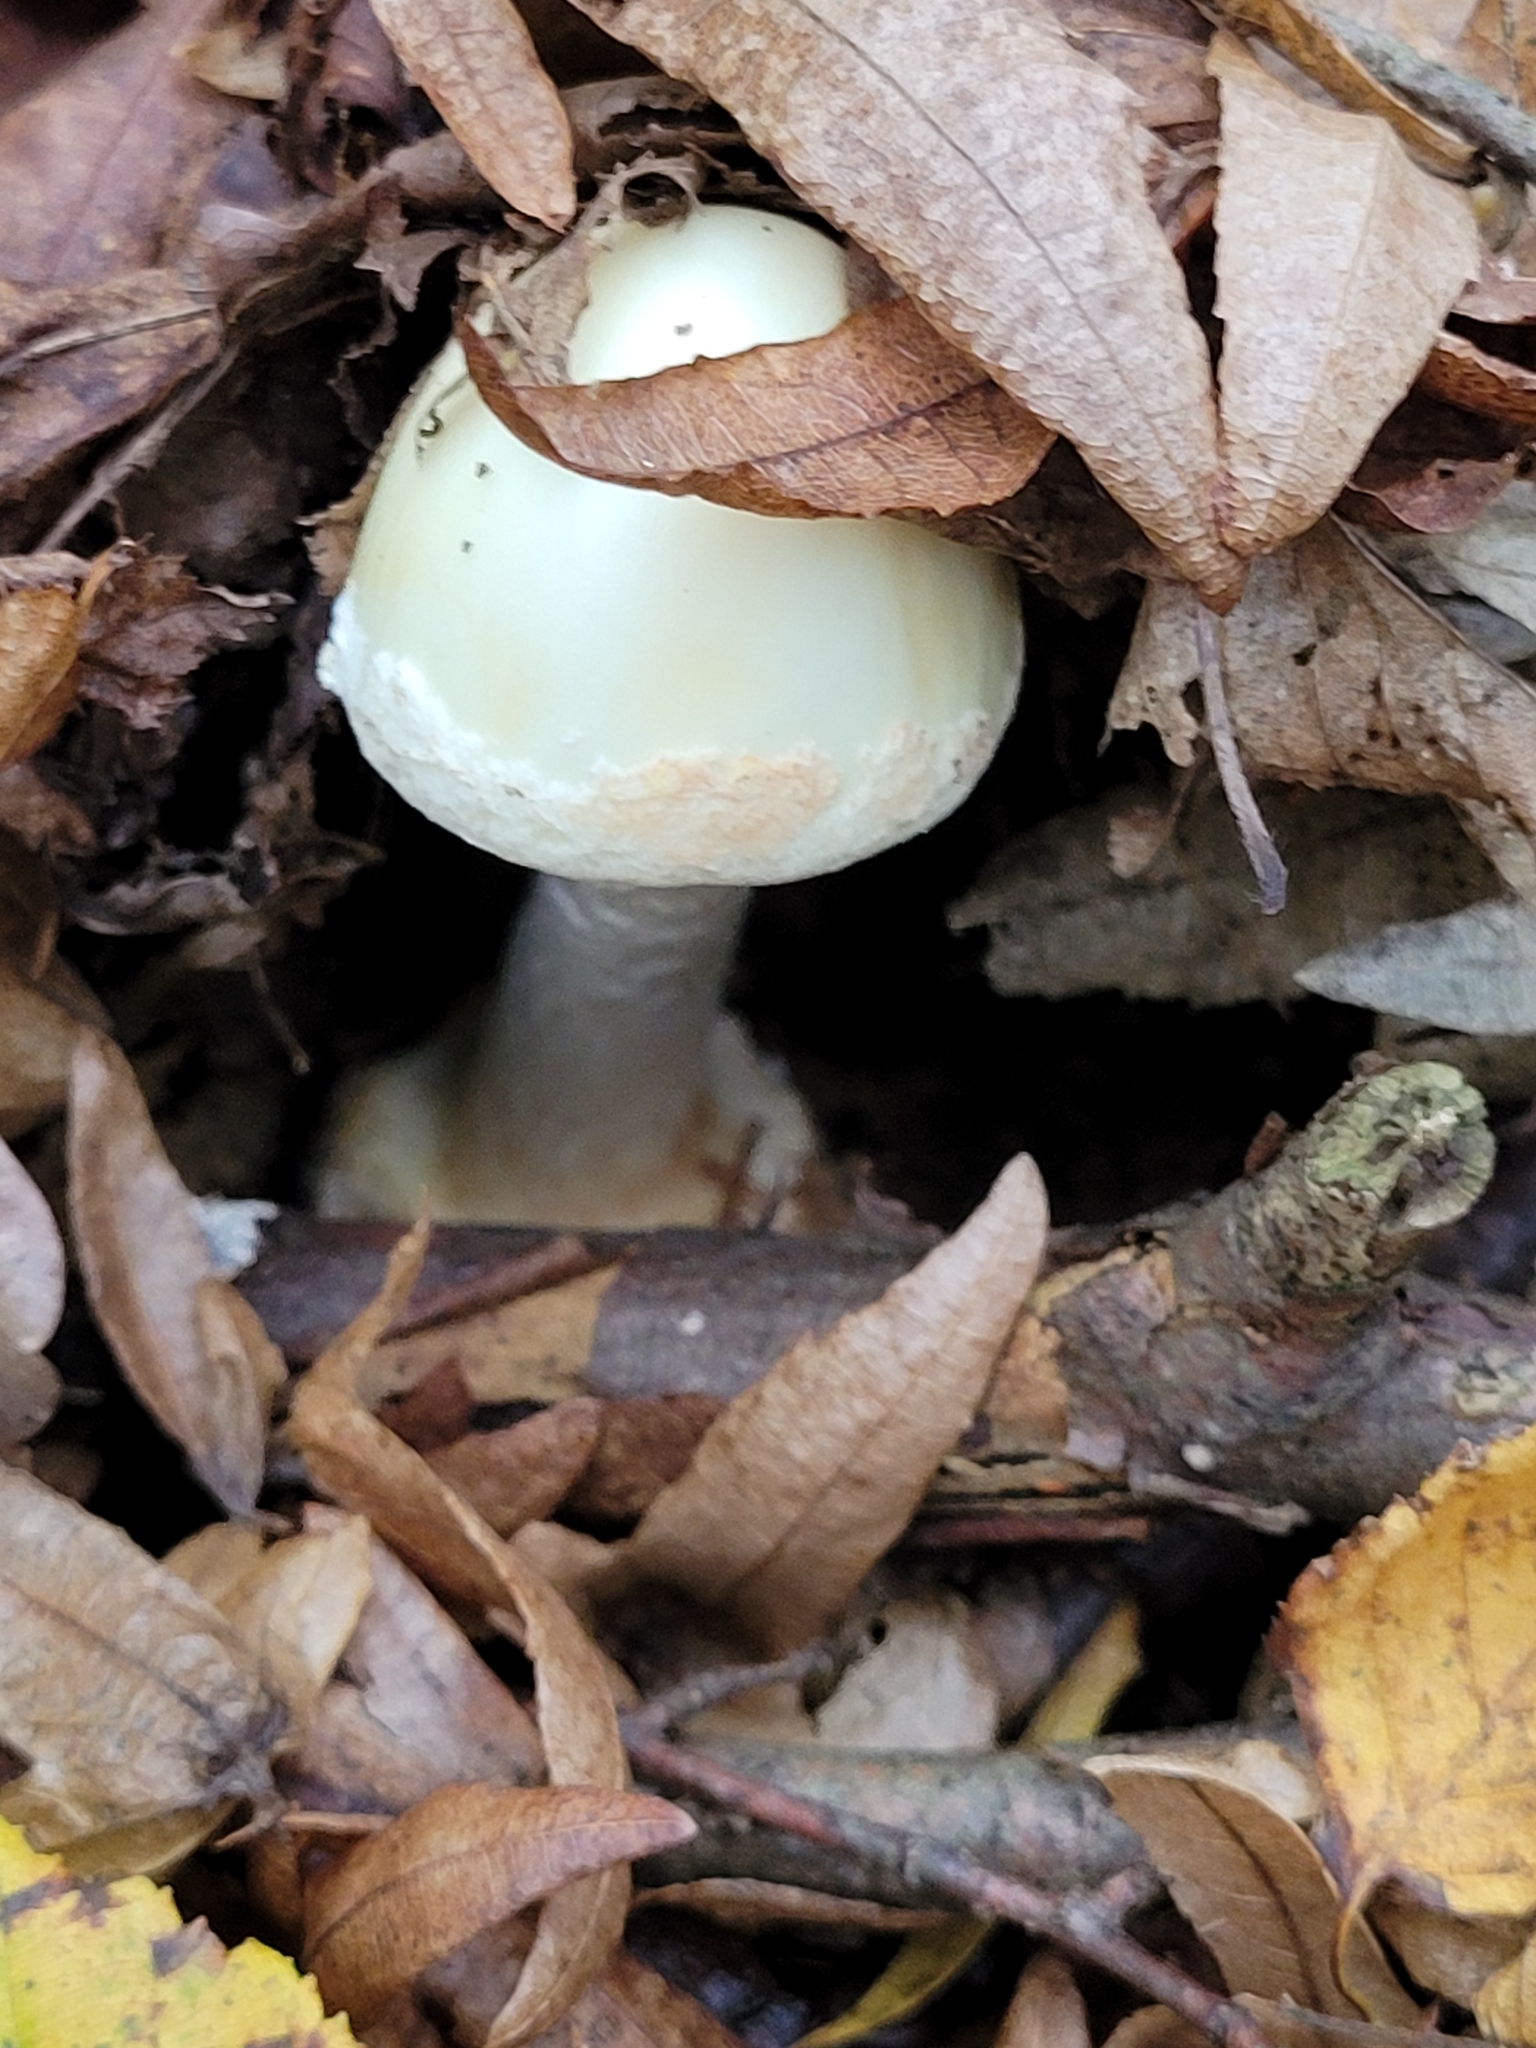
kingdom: Fungi
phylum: Basidiomycota
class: Agaricomycetes
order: Agaricales
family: Amanitaceae
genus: Amanita
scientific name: Amanita citrina
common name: False death-cap
